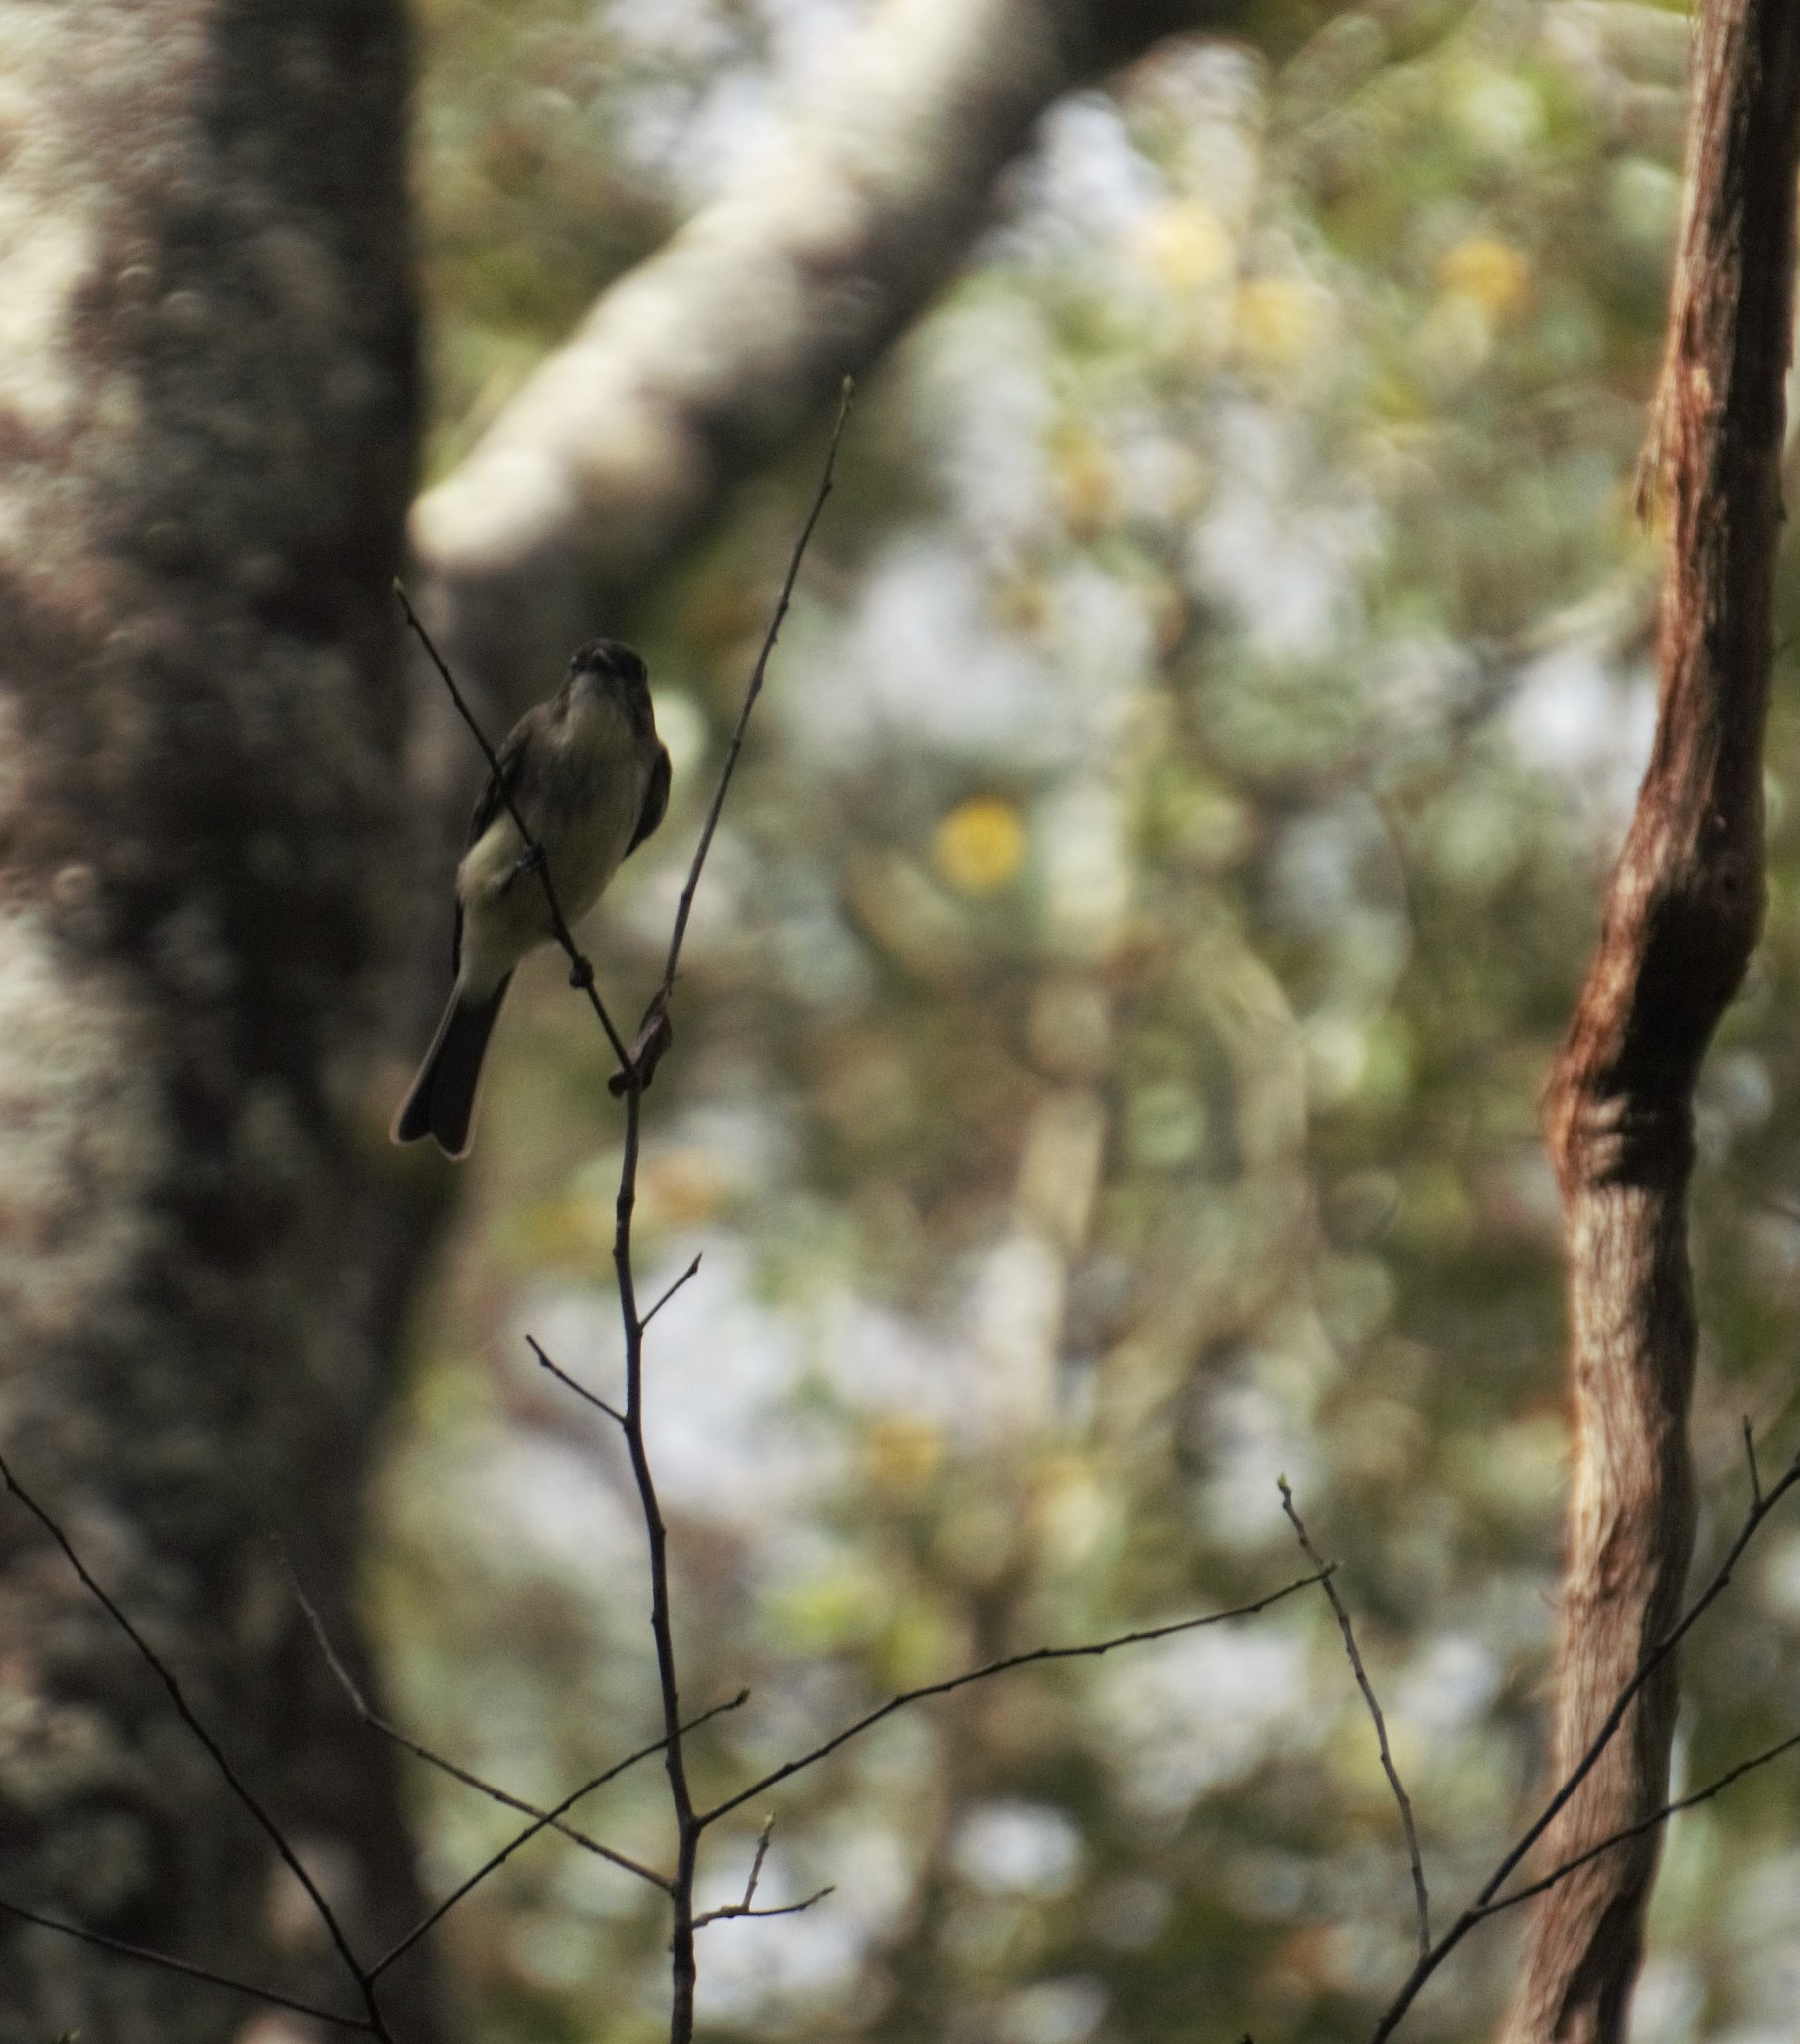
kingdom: Animalia
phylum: Chordata
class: Aves
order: Passeriformes
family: Tyrannidae
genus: Sayornis
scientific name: Sayornis phoebe
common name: Eastern phoebe
